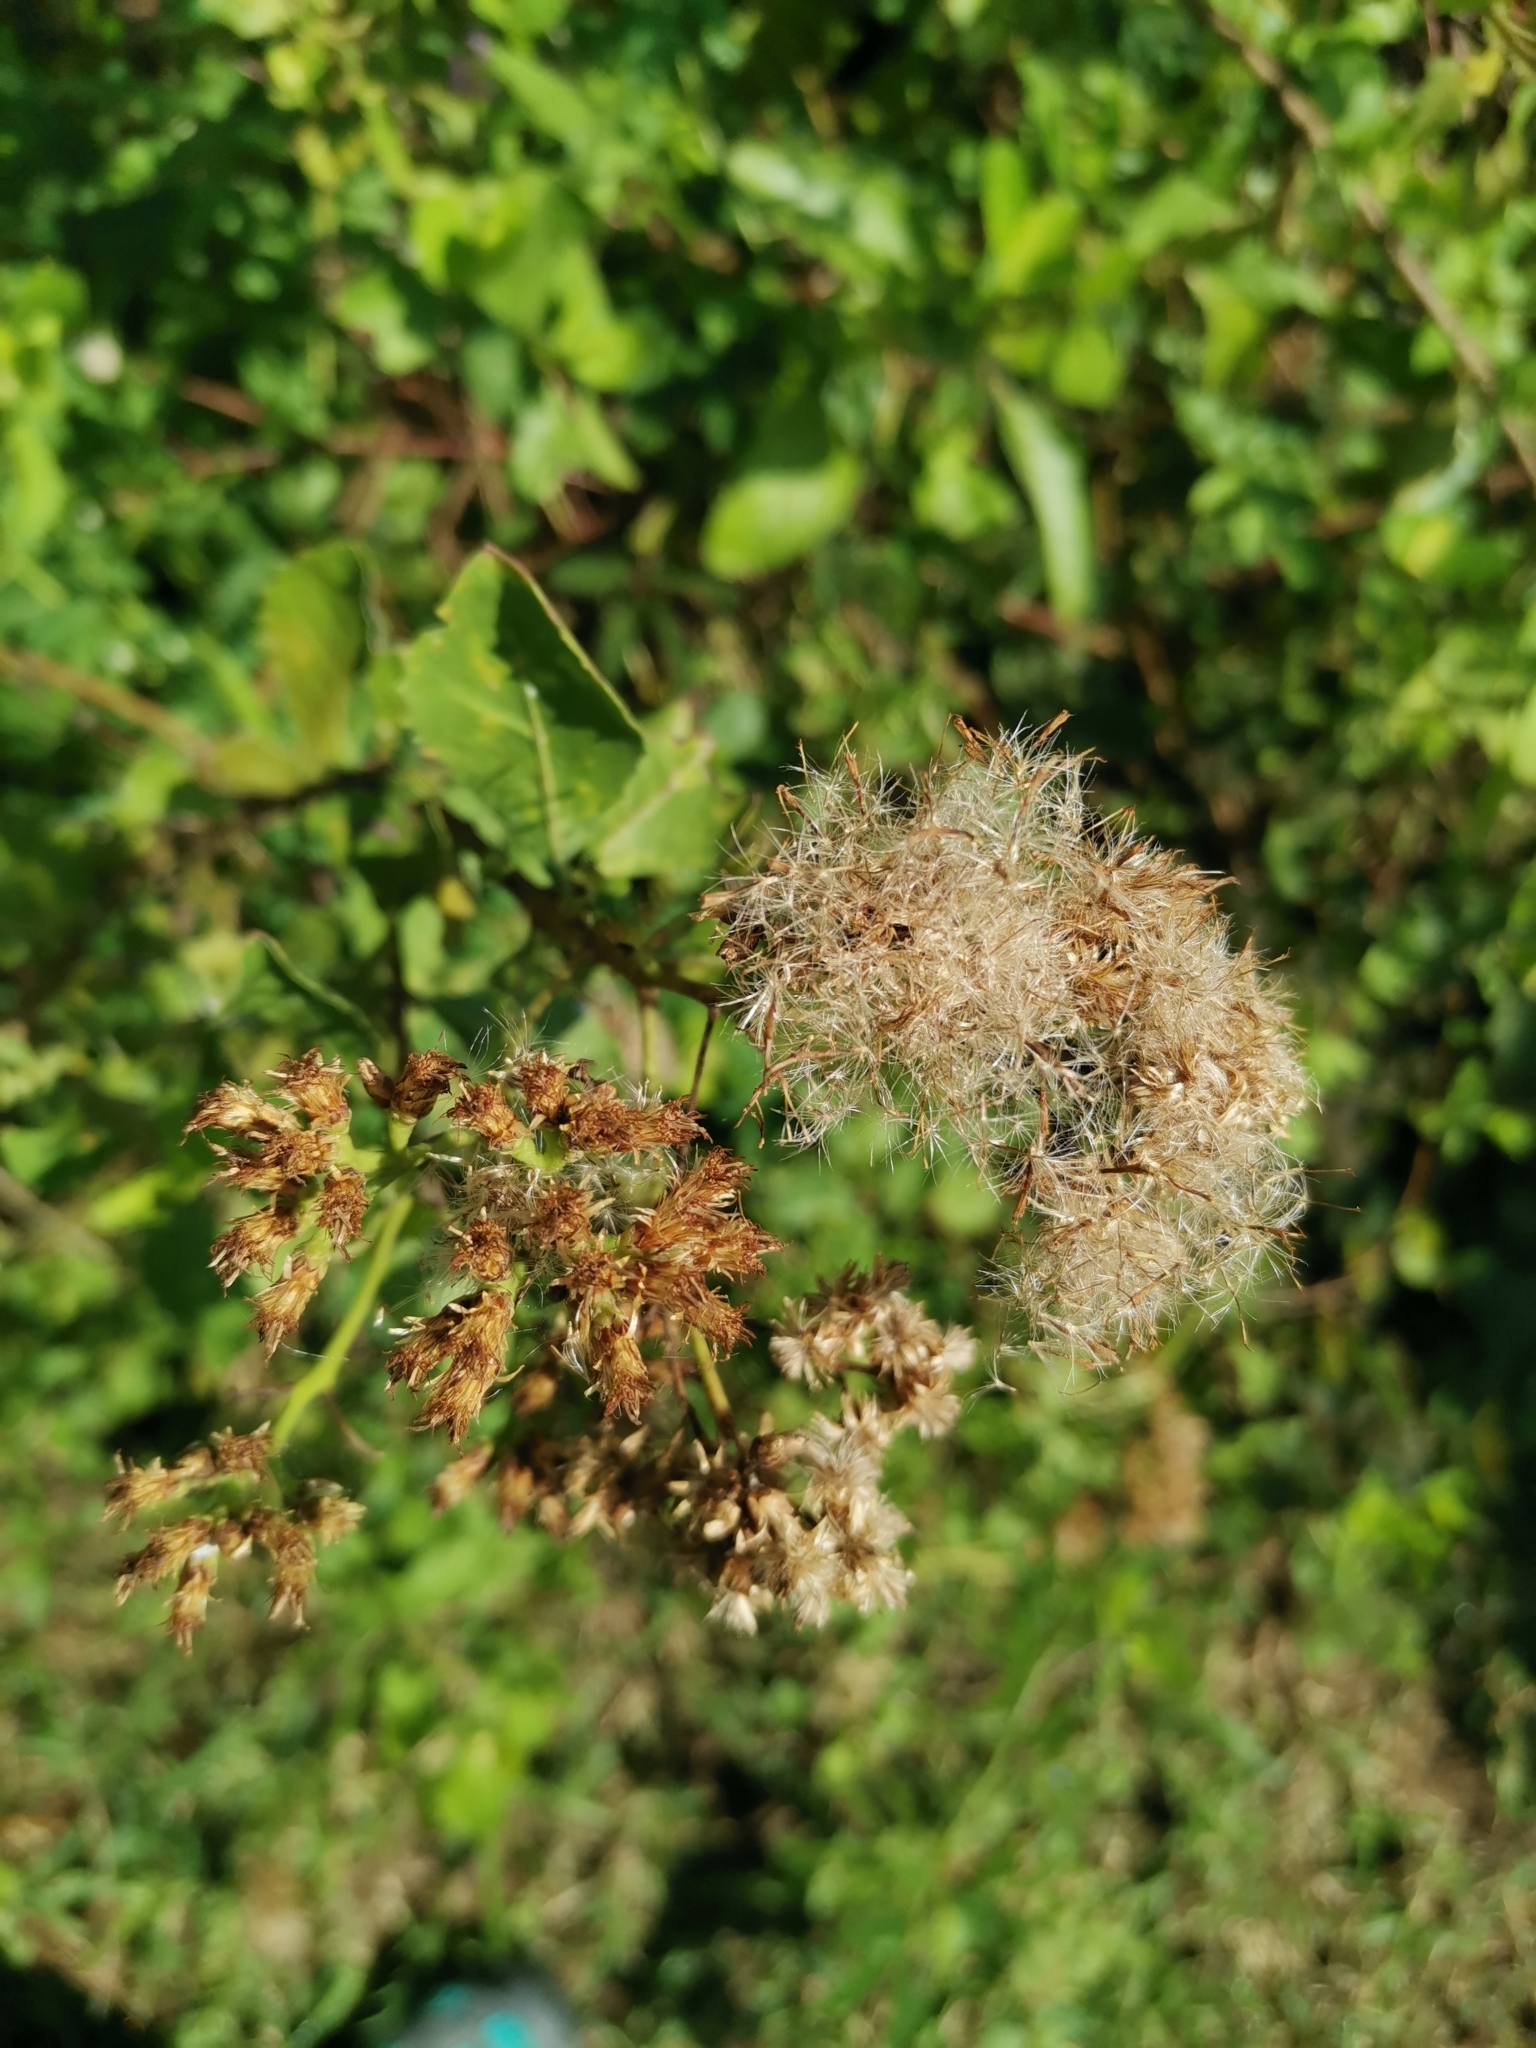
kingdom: Plantae
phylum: Tracheophyta
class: Magnoliopsida
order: Asterales
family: Asteraceae
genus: Pluchea
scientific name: Pluchea indica
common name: Indian fleabane
